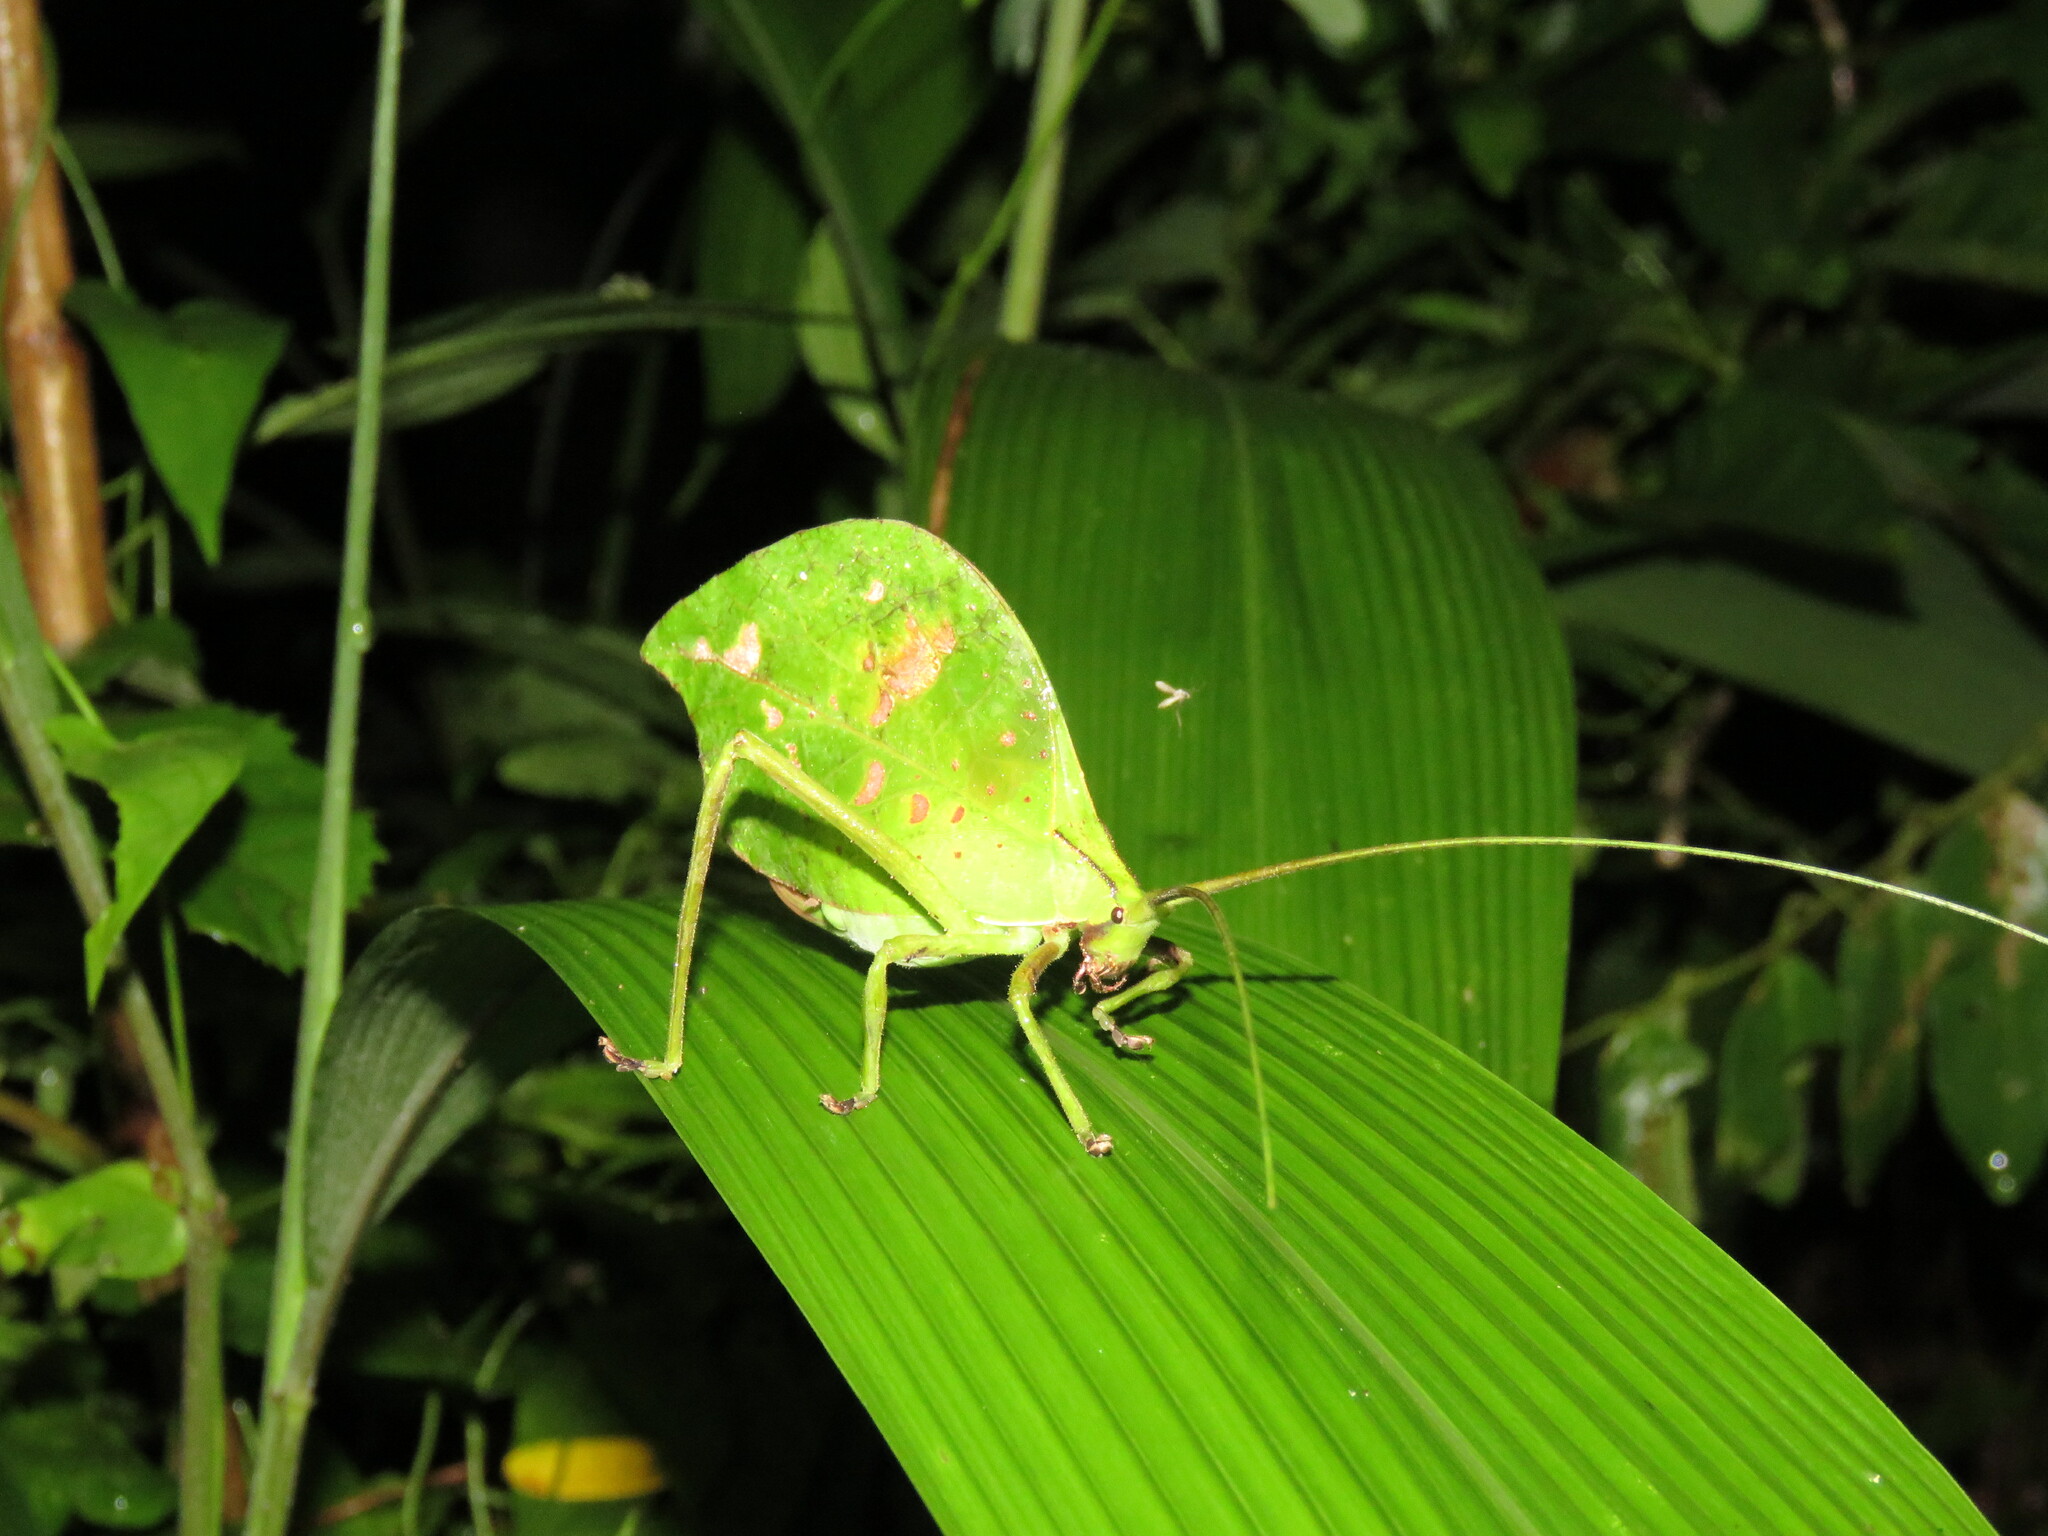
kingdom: Animalia
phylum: Arthropoda
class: Insecta
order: Orthoptera
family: Tettigoniidae
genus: Roxelana
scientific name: Roxelana crassicornis
